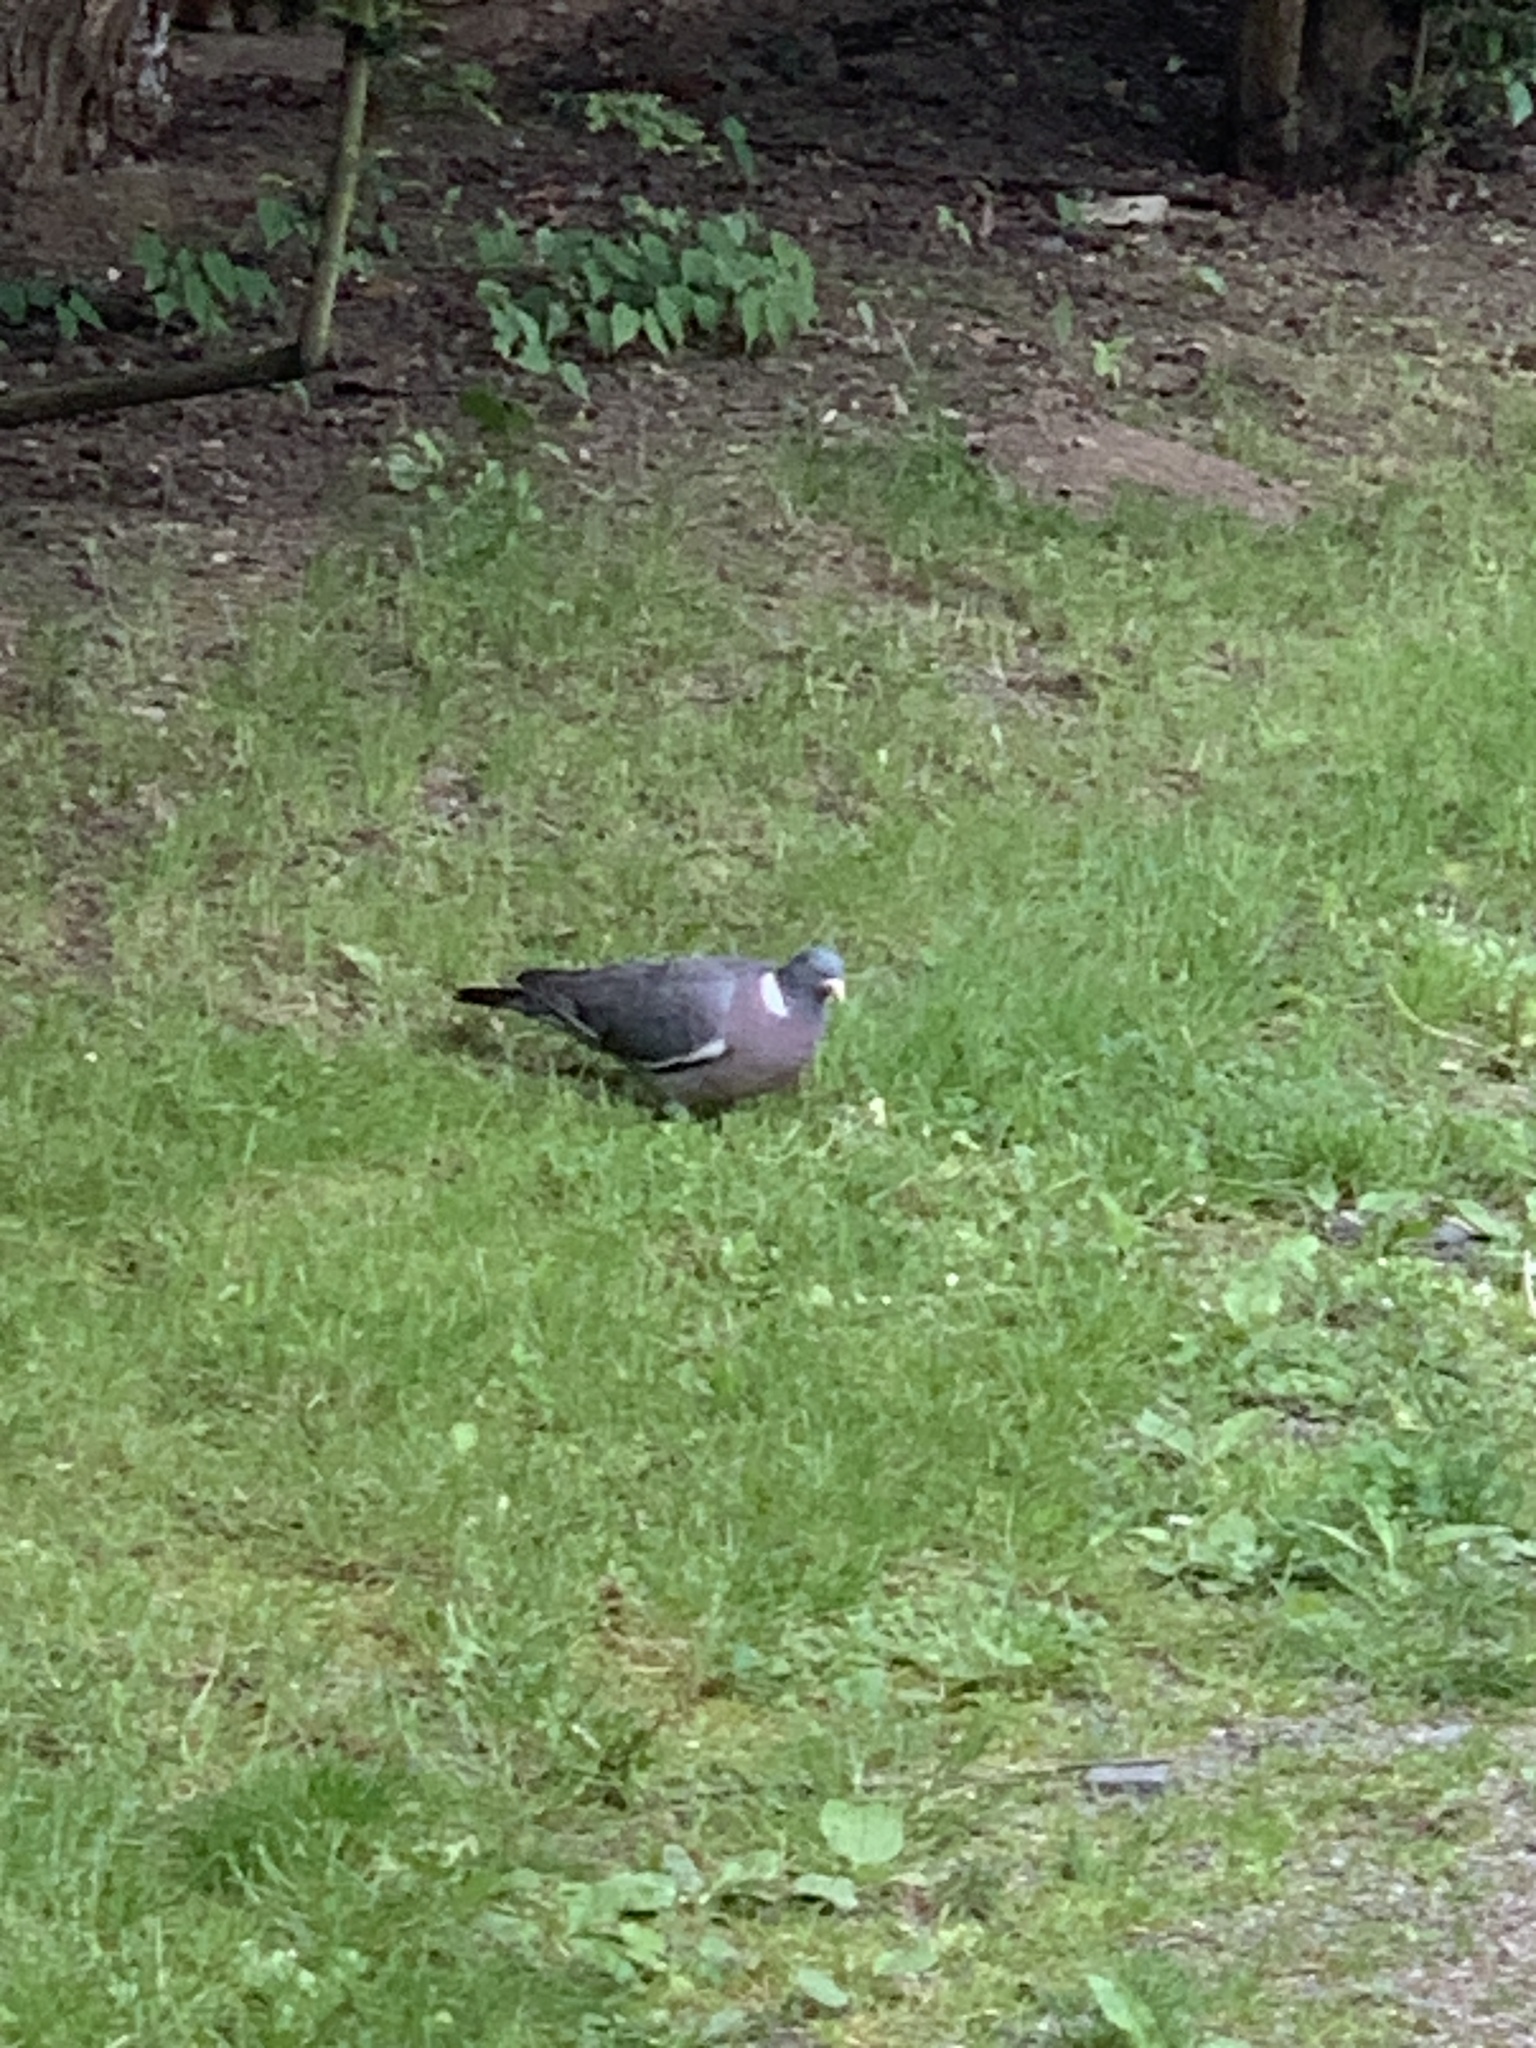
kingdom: Animalia
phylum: Chordata
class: Aves
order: Columbiformes
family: Columbidae
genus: Columba
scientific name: Columba palumbus
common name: Common wood pigeon
